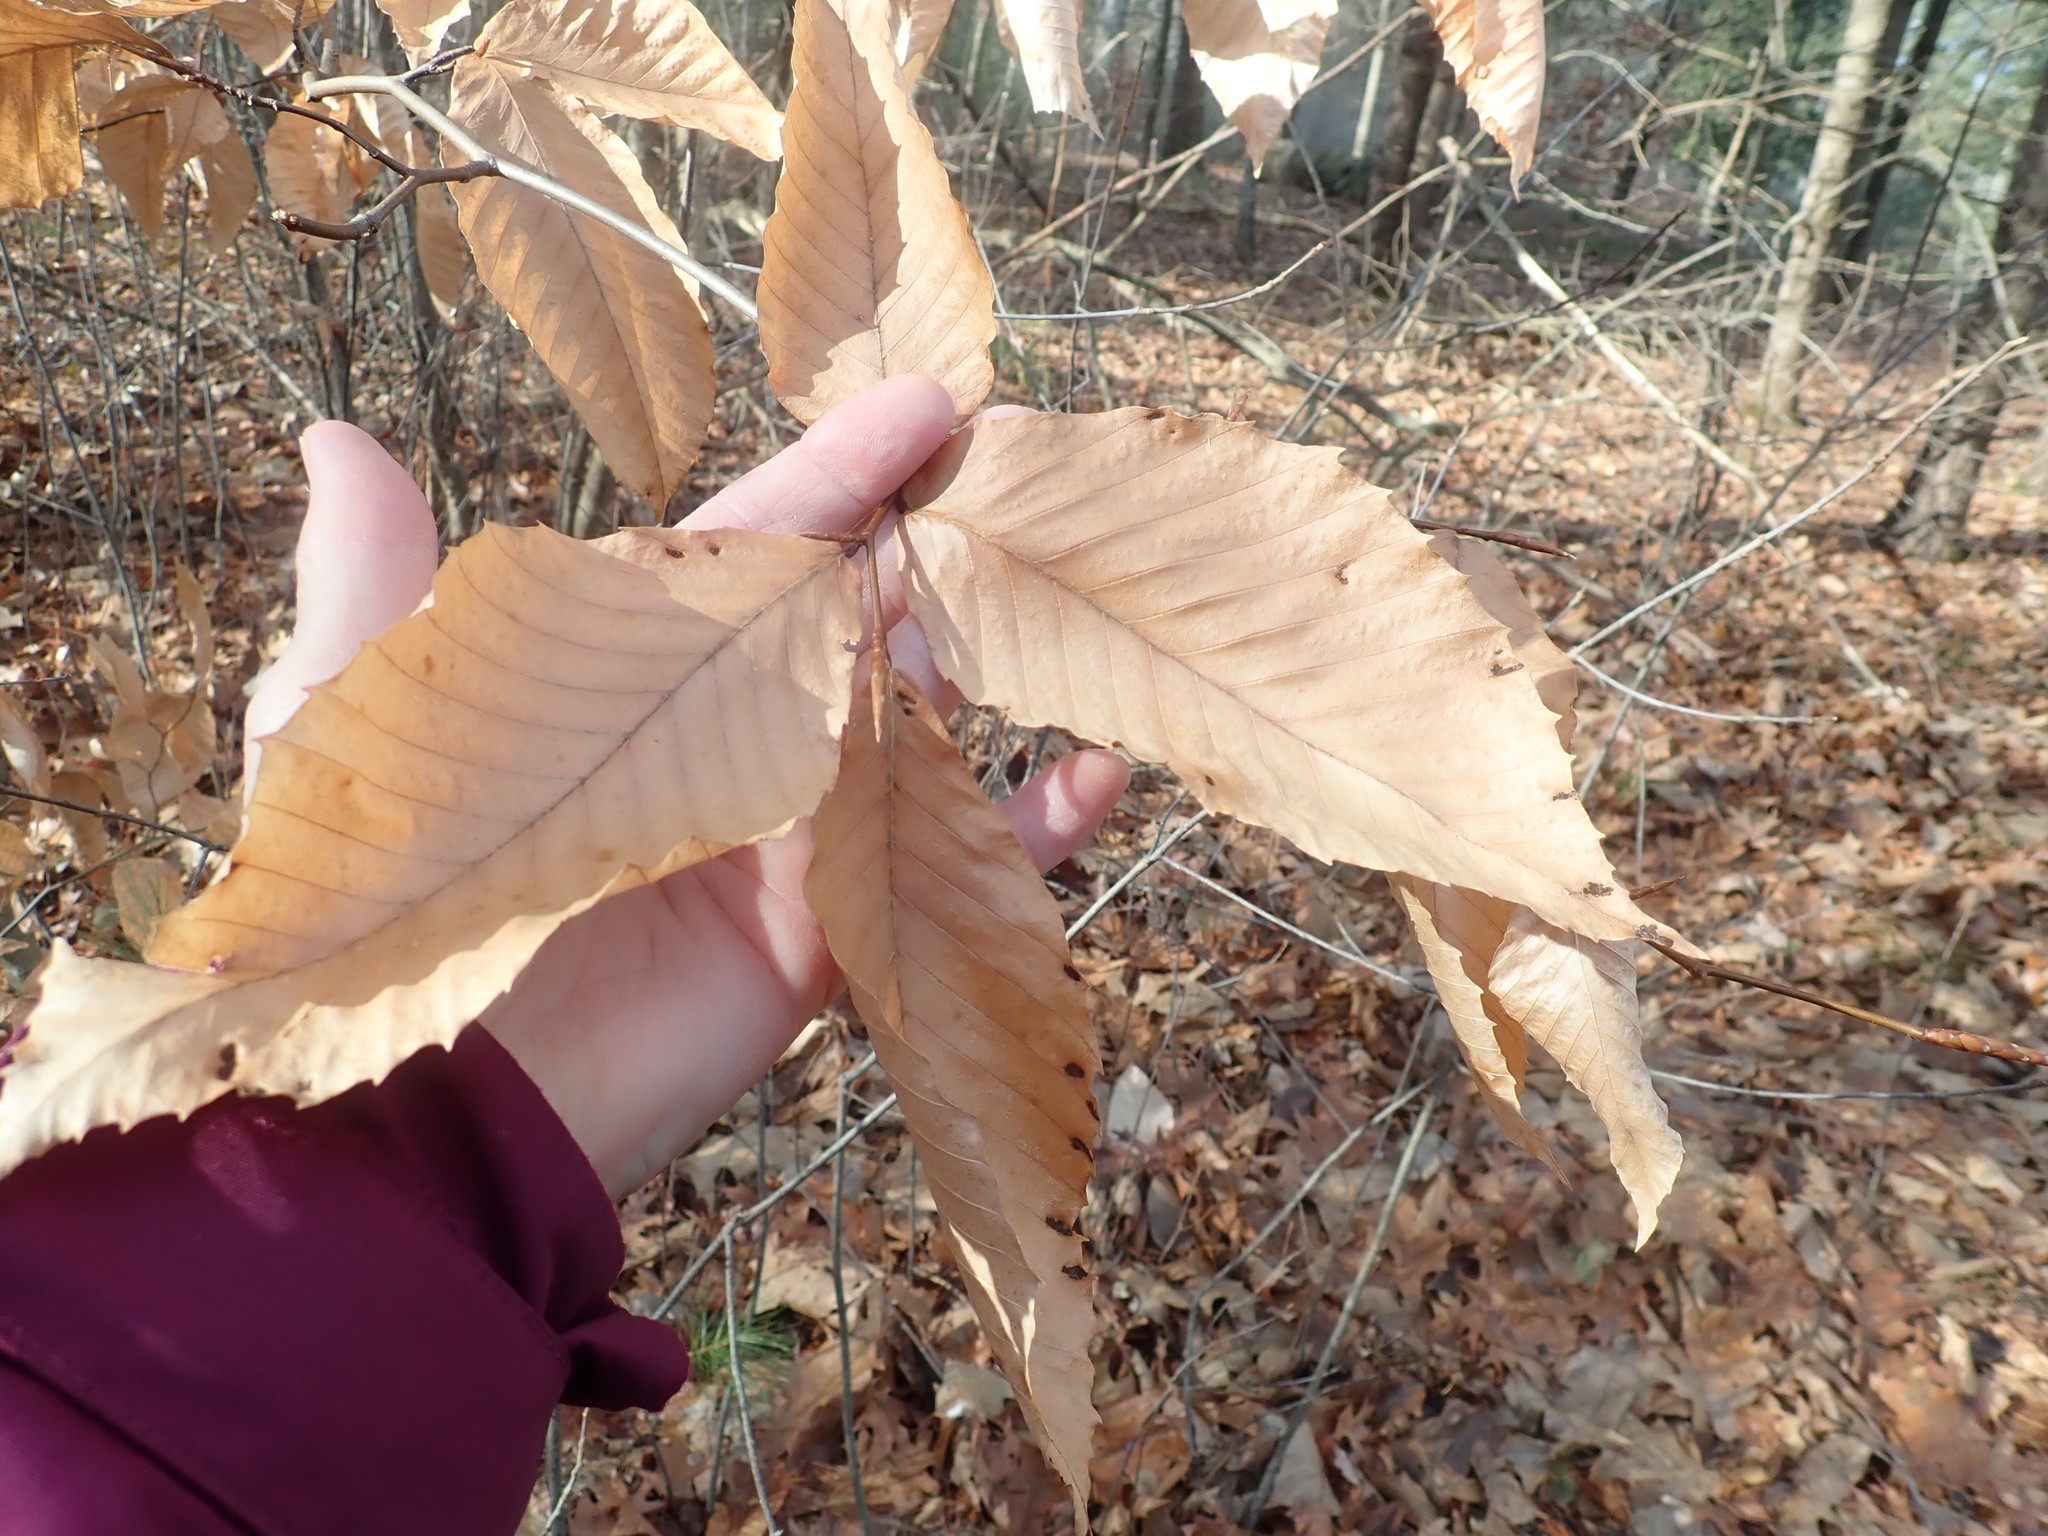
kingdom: Plantae
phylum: Tracheophyta
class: Magnoliopsida
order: Fagales
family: Fagaceae
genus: Fagus
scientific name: Fagus grandifolia
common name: American beech
